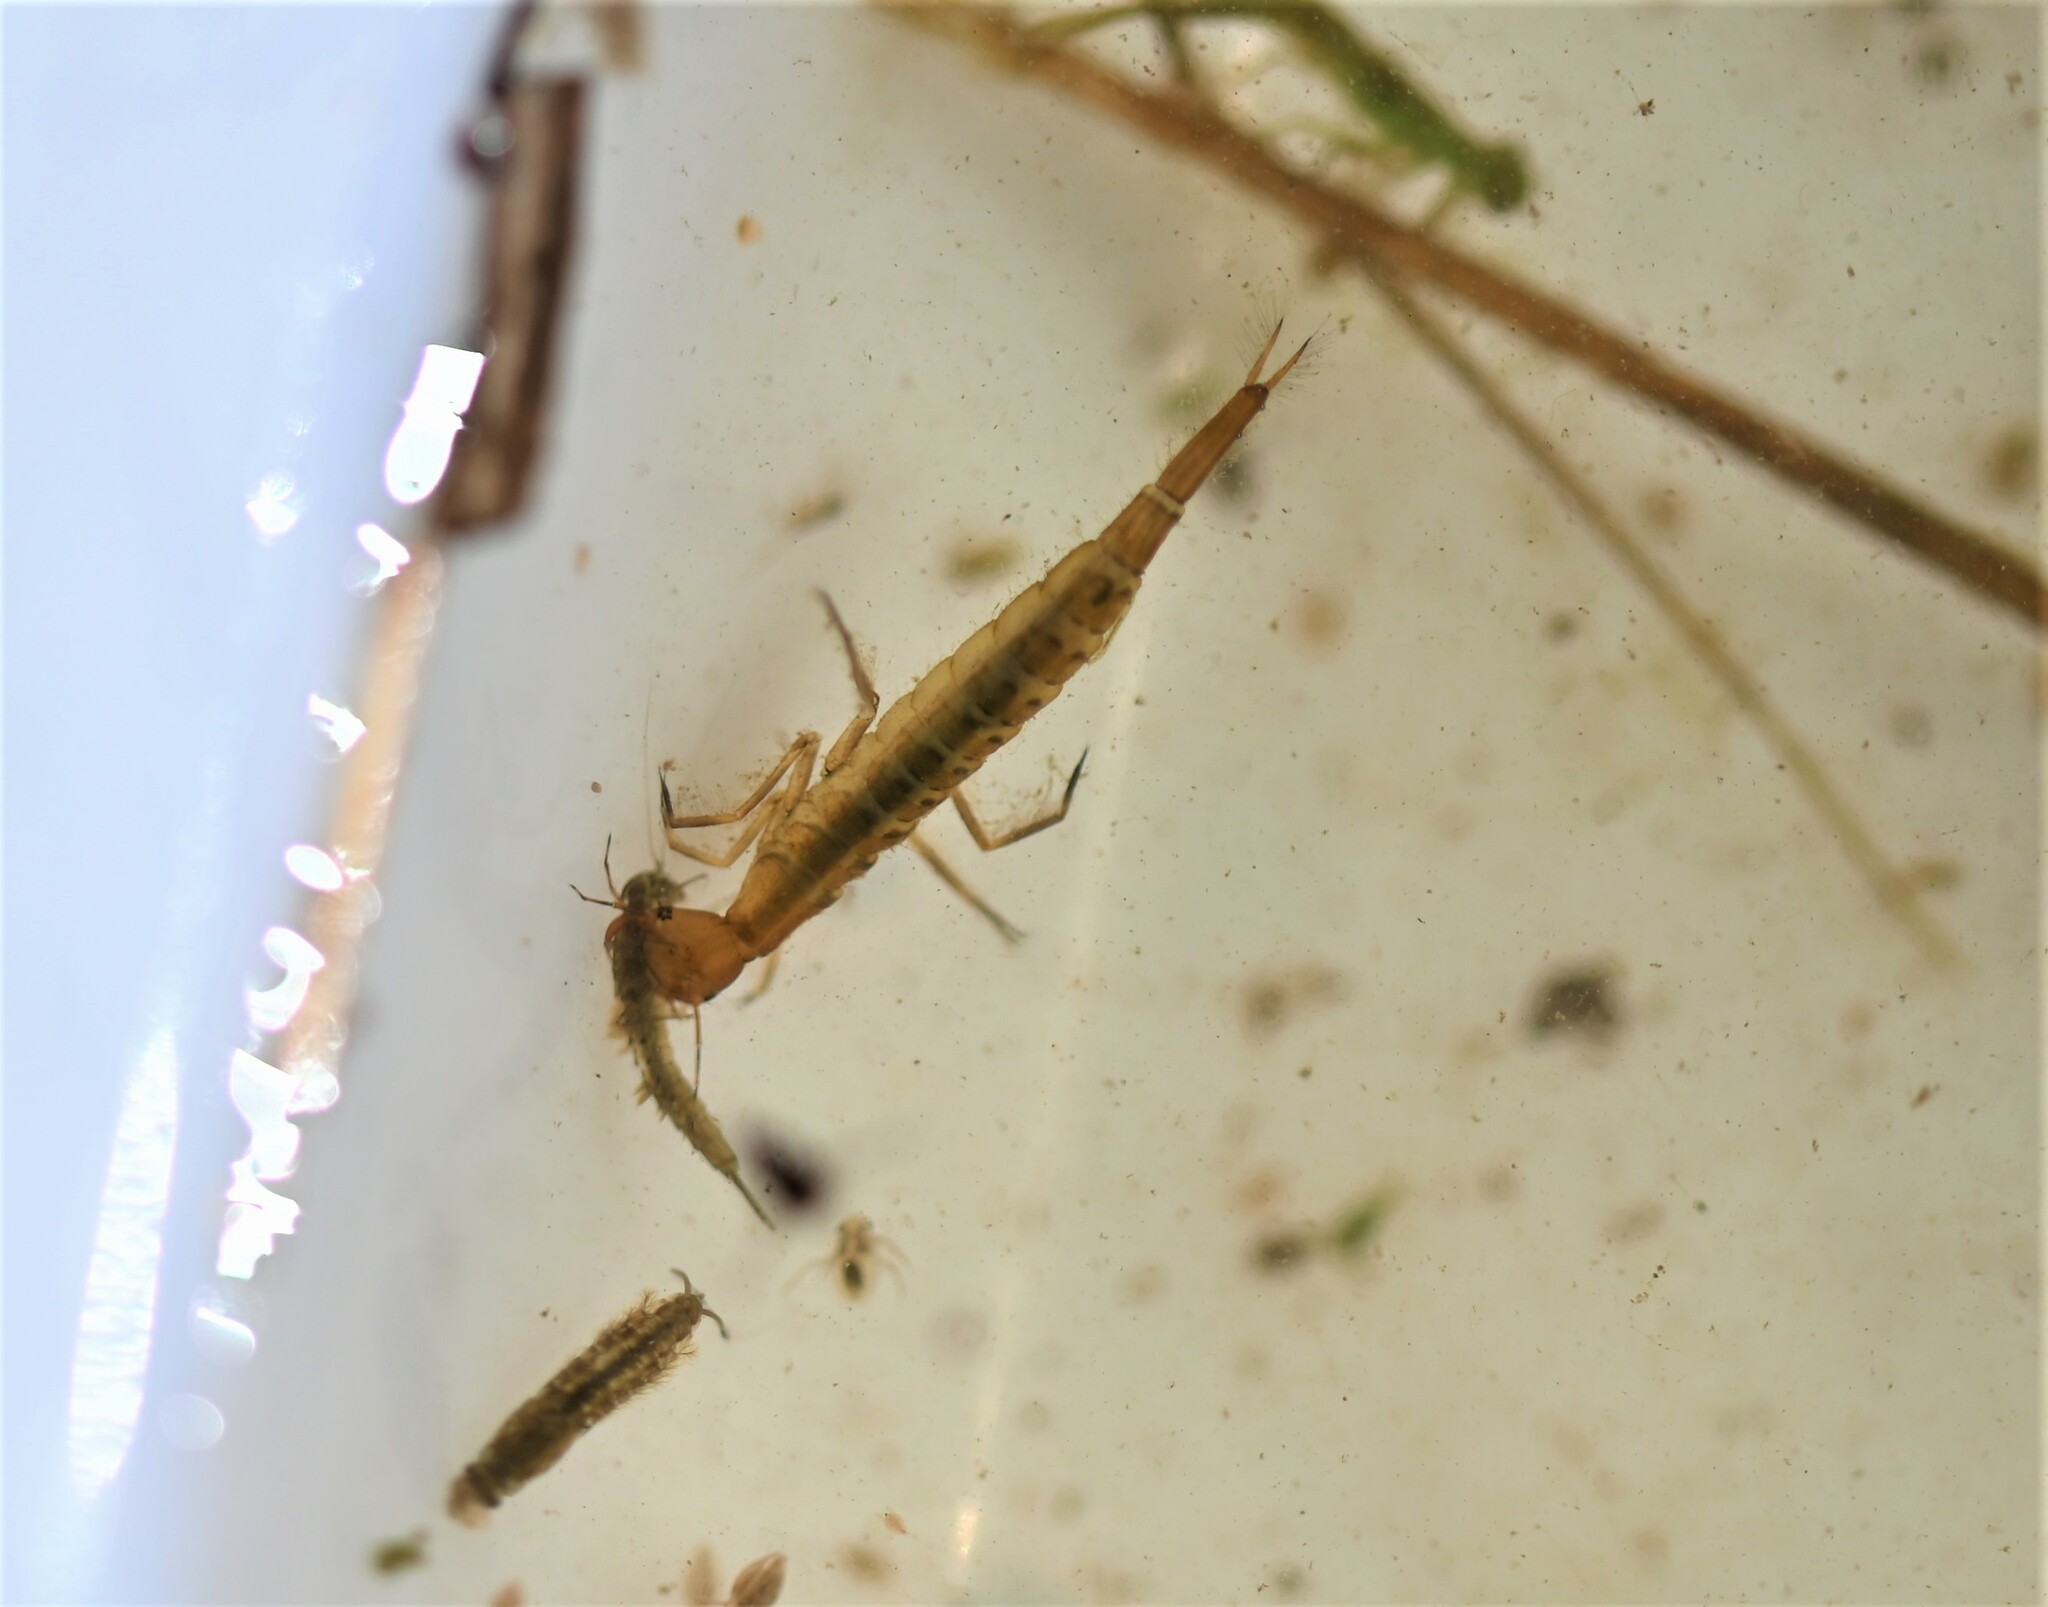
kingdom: Animalia
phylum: Arthropoda
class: Insecta
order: Coleoptera
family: Dytiscidae
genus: Dytiscus
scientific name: Dytiscus
